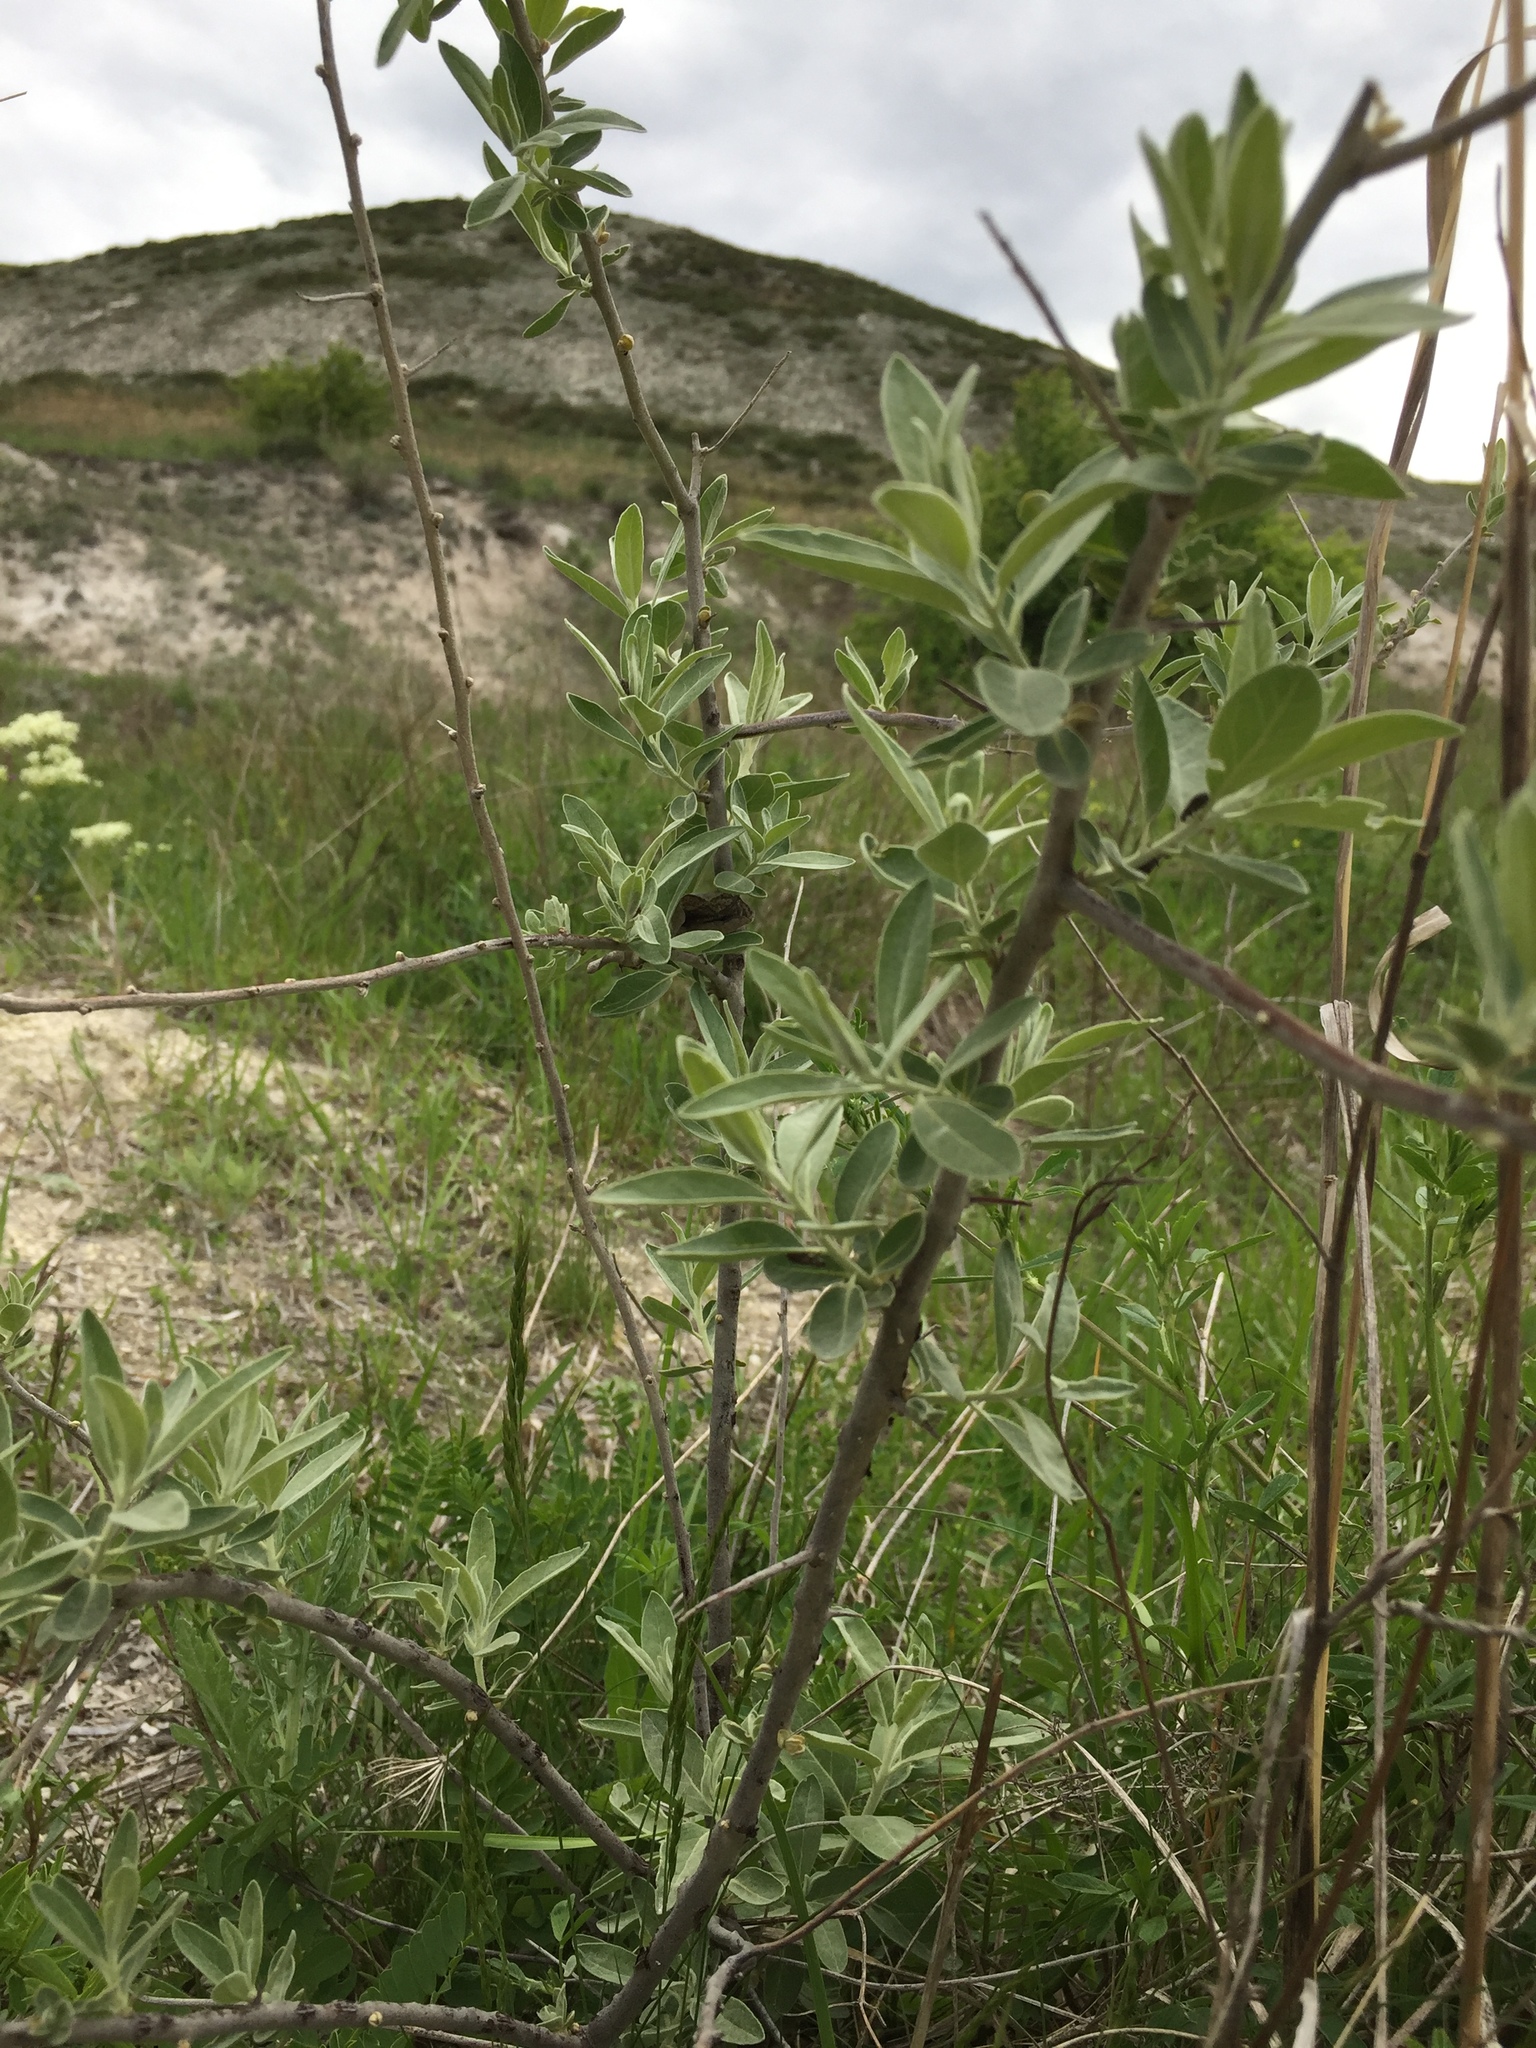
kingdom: Plantae
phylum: Tracheophyta
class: Magnoliopsida
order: Rosales
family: Elaeagnaceae
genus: Elaeagnus
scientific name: Elaeagnus angustifolia
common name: Russian olive
